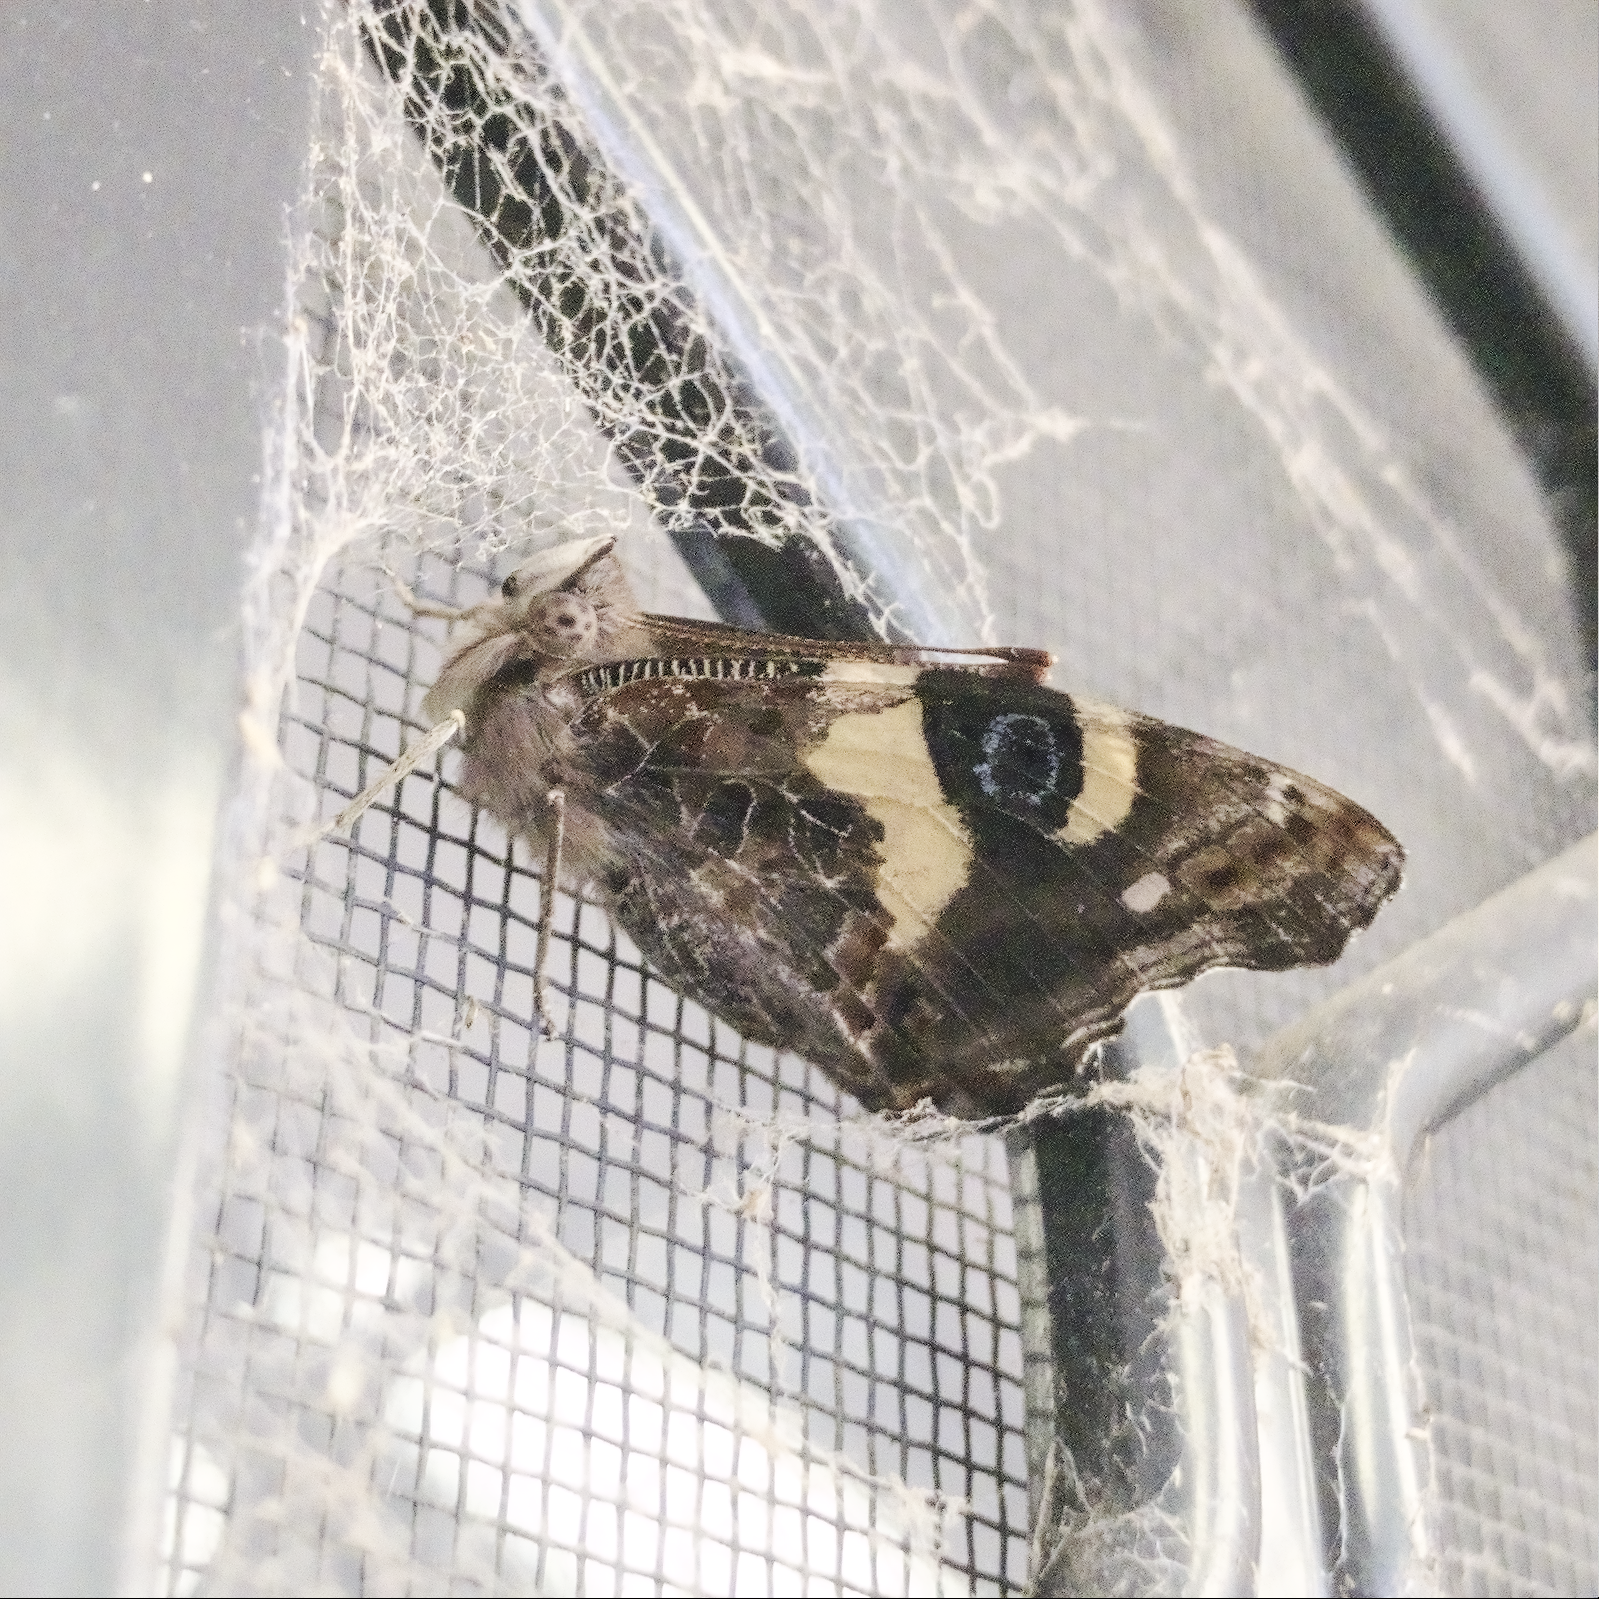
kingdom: Animalia
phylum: Arthropoda
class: Insecta
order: Lepidoptera
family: Nymphalidae
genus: Vanessa
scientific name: Vanessa itea
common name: Yellow admiral
